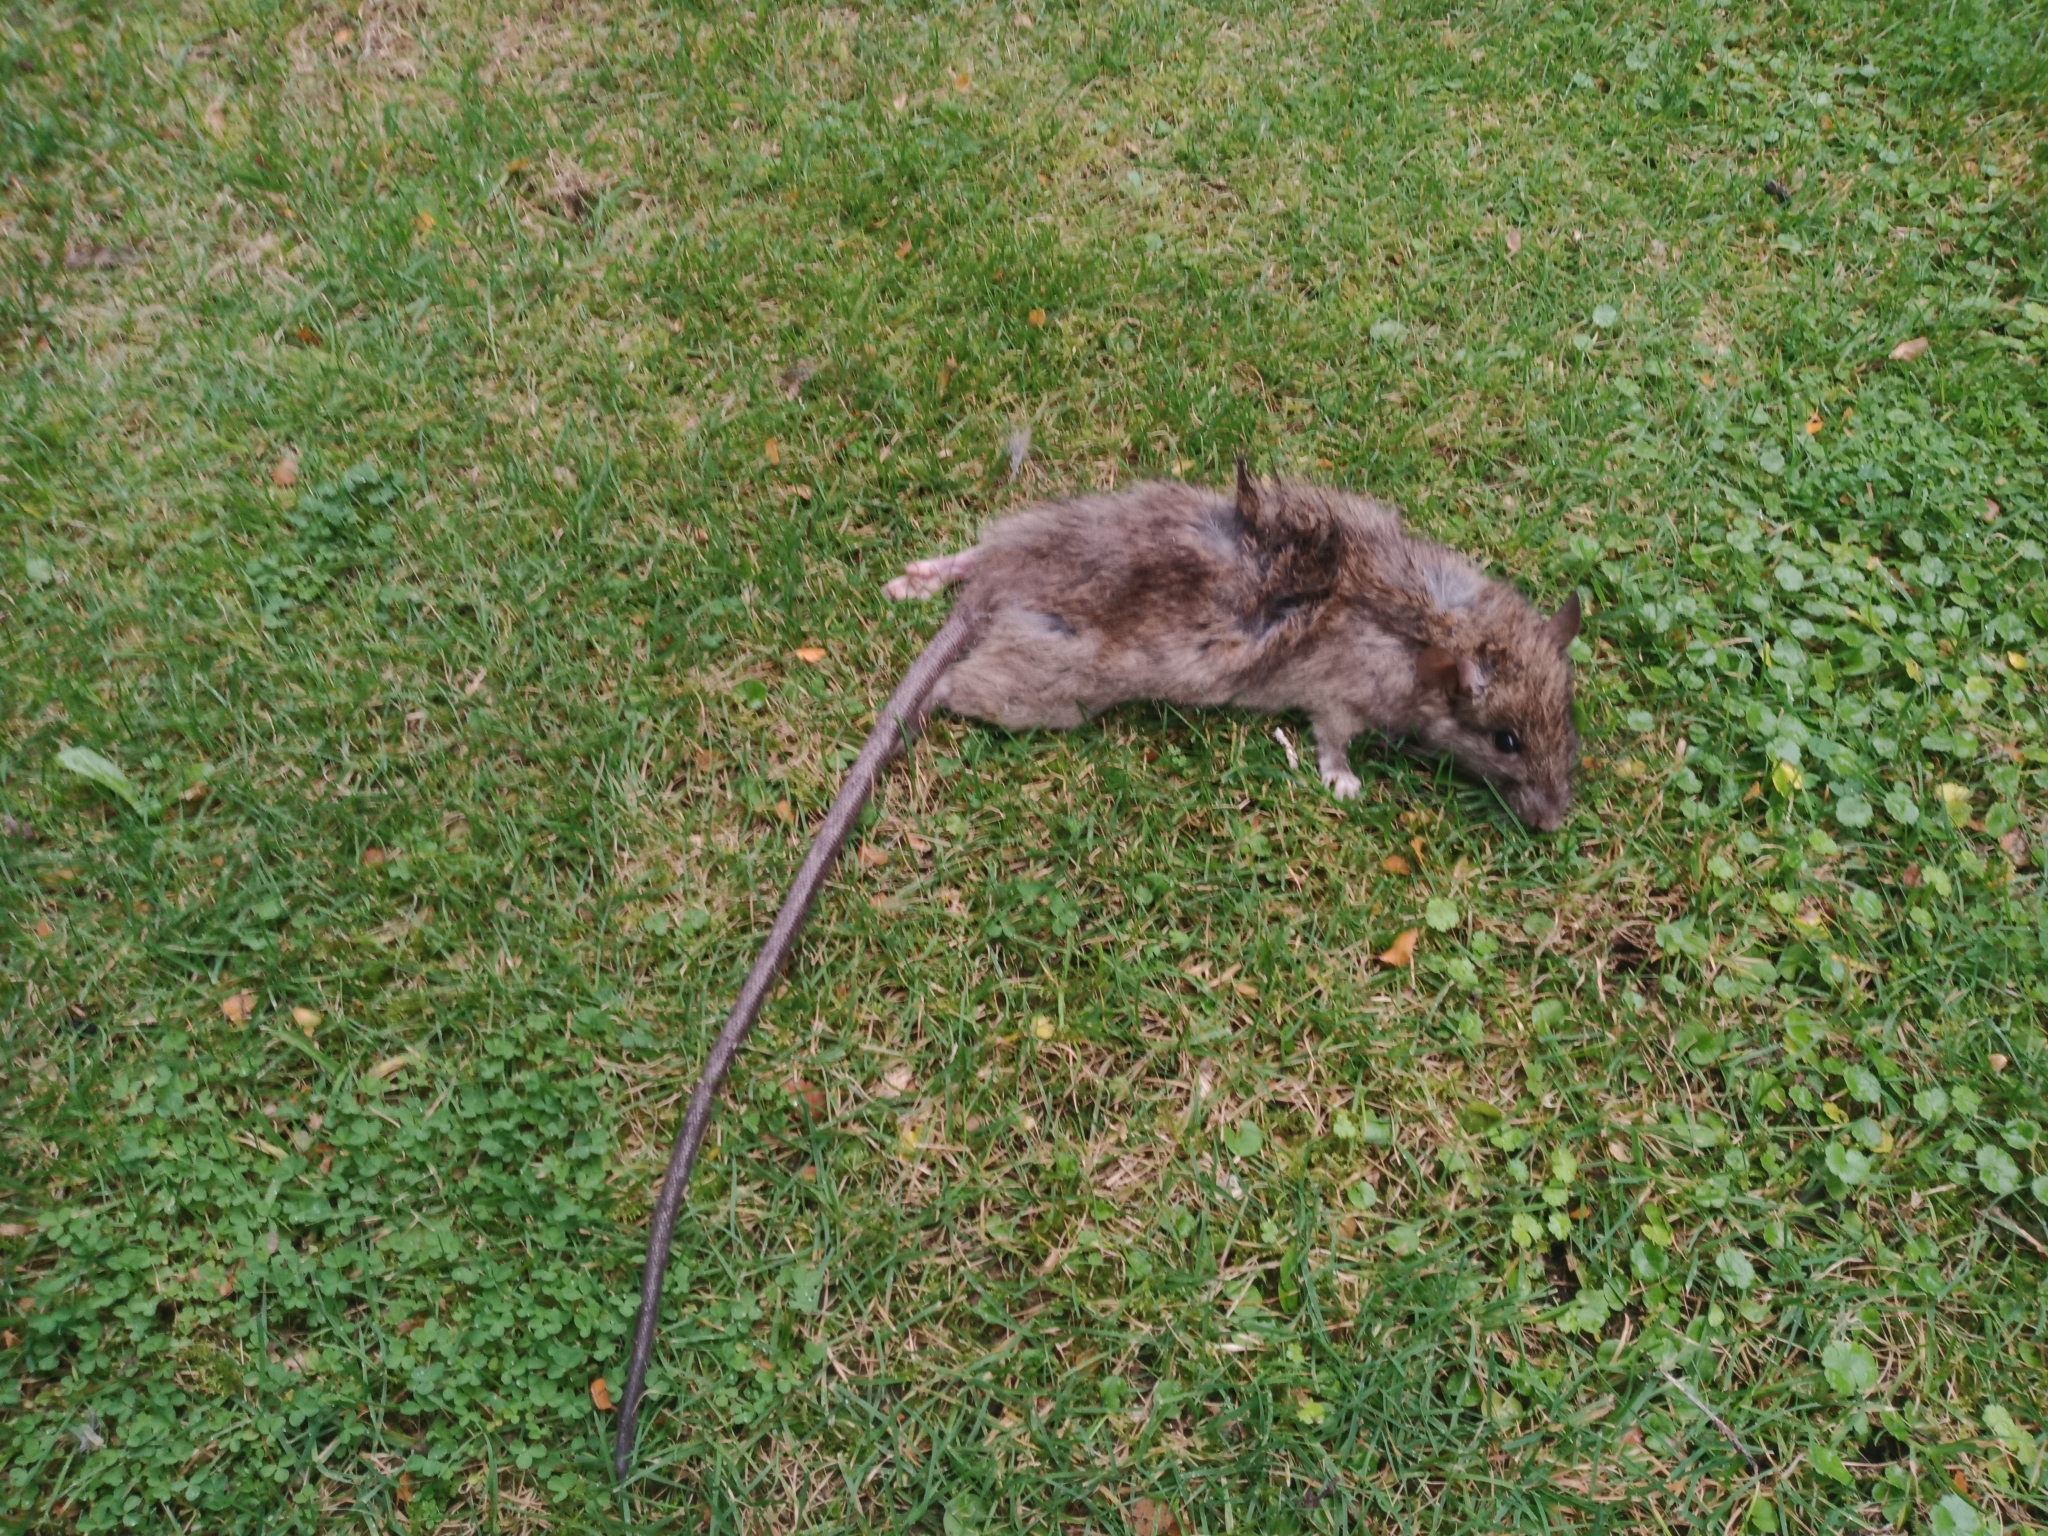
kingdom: Animalia
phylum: Chordata
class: Mammalia
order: Rodentia
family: Muridae
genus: Rattus
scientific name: Rattus rattus
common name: Black rat
